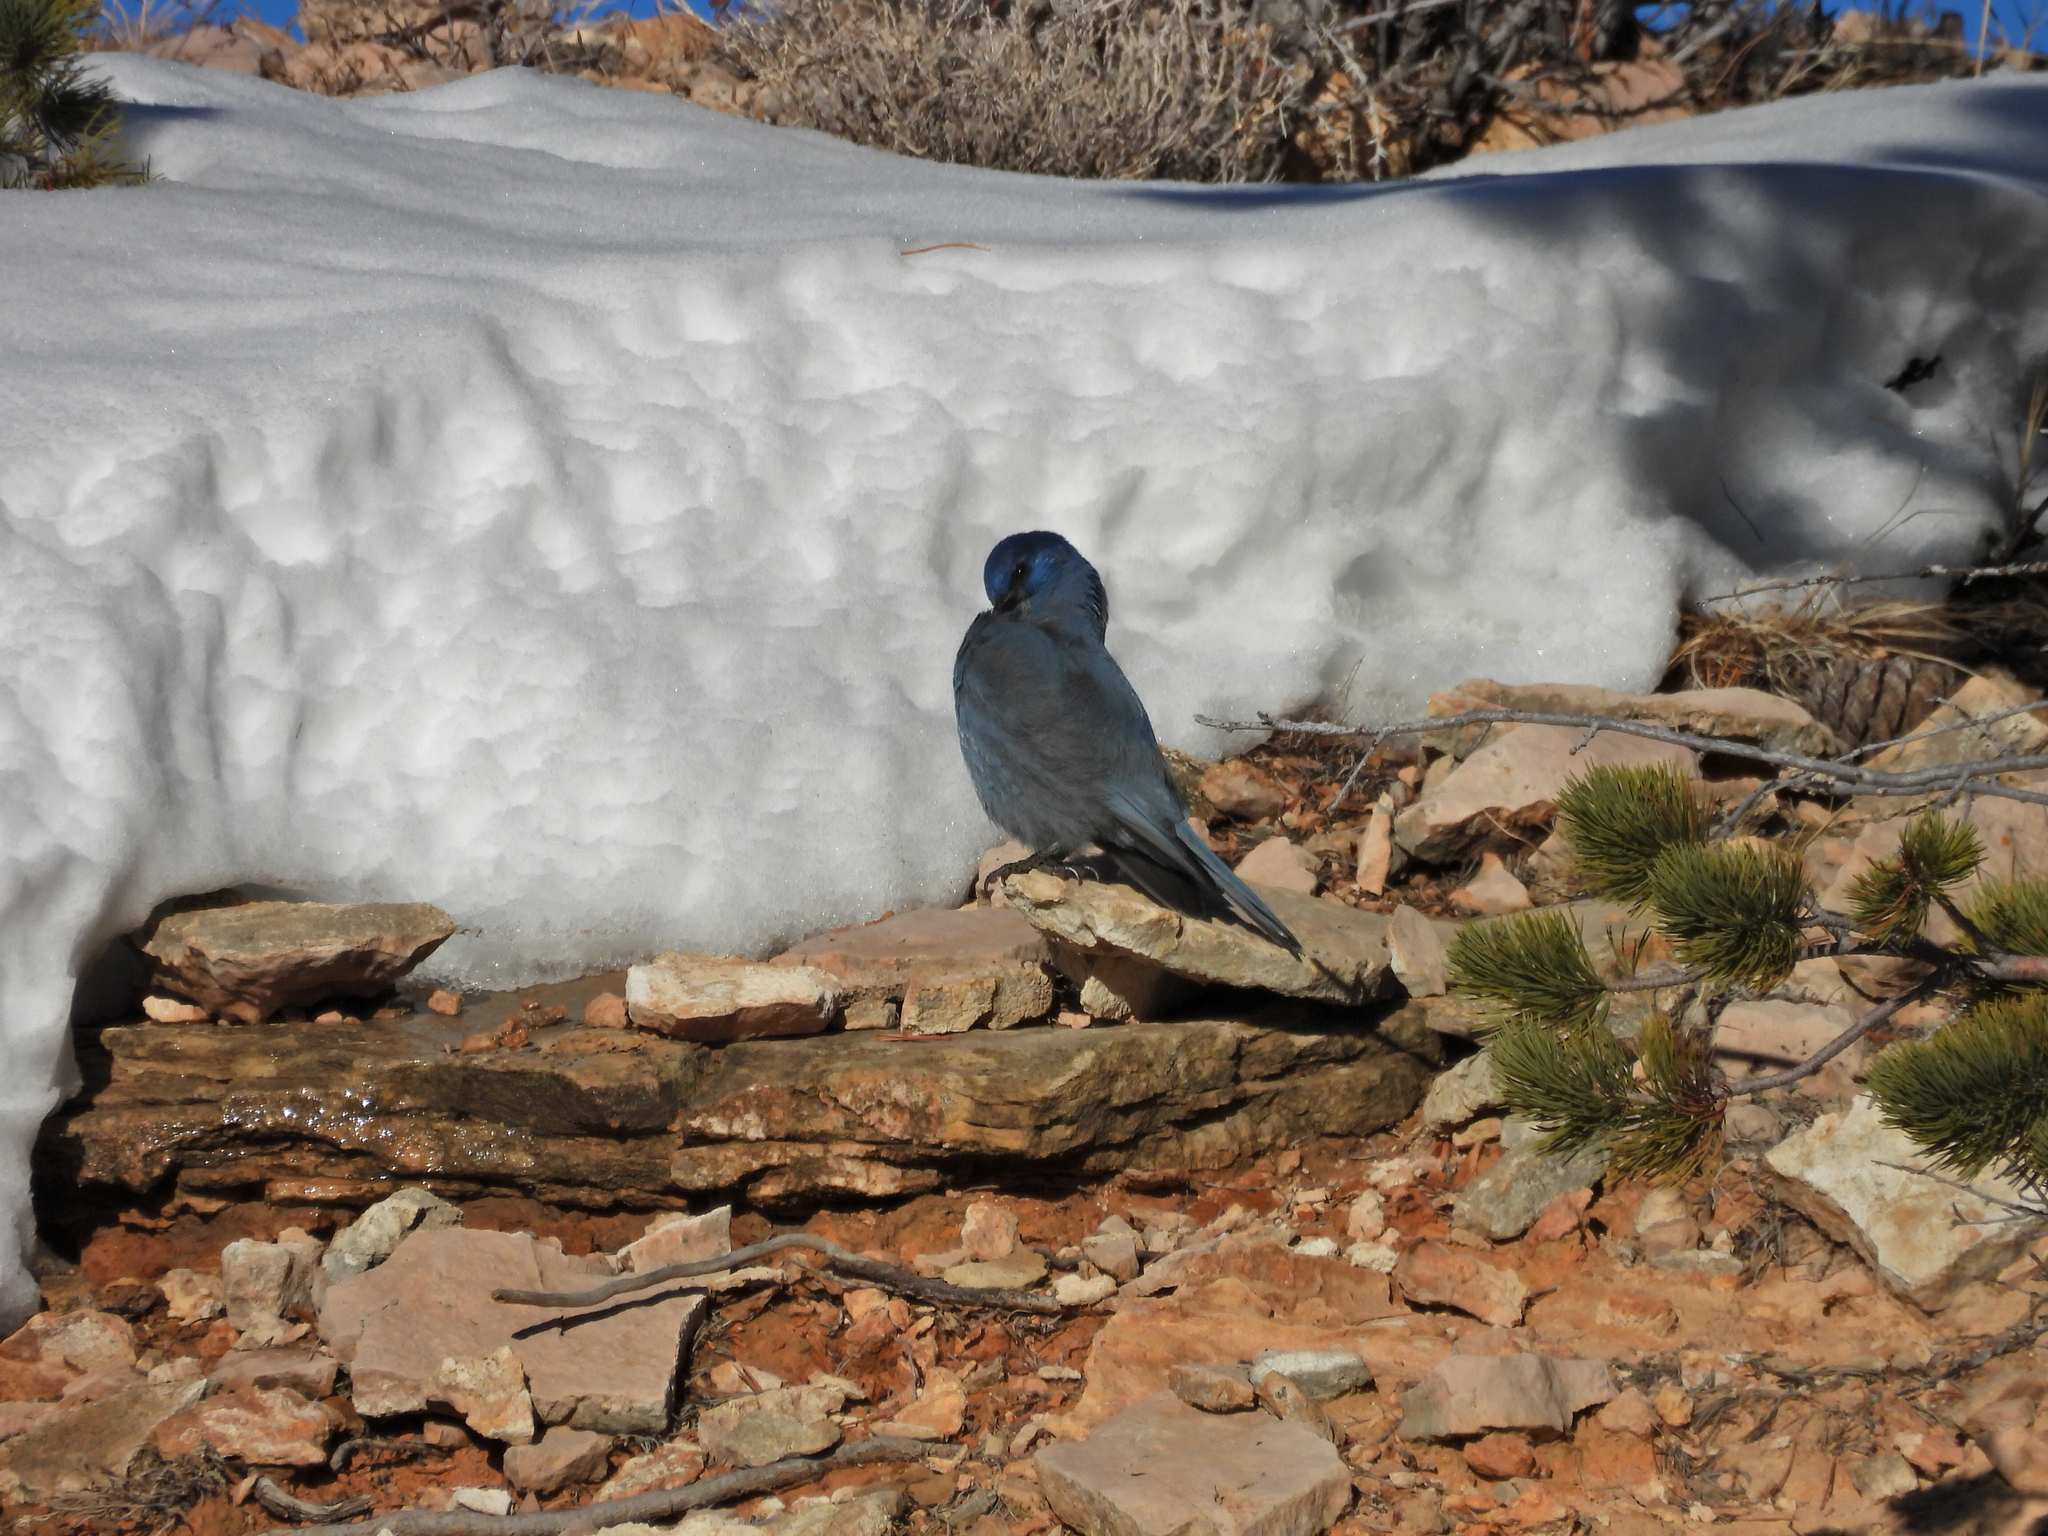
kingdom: Animalia
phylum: Chordata
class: Aves
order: Passeriformes
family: Corvidae
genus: Gymnorhinus
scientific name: Gymnorhinus cyanocephalus
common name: Pinyon jay
